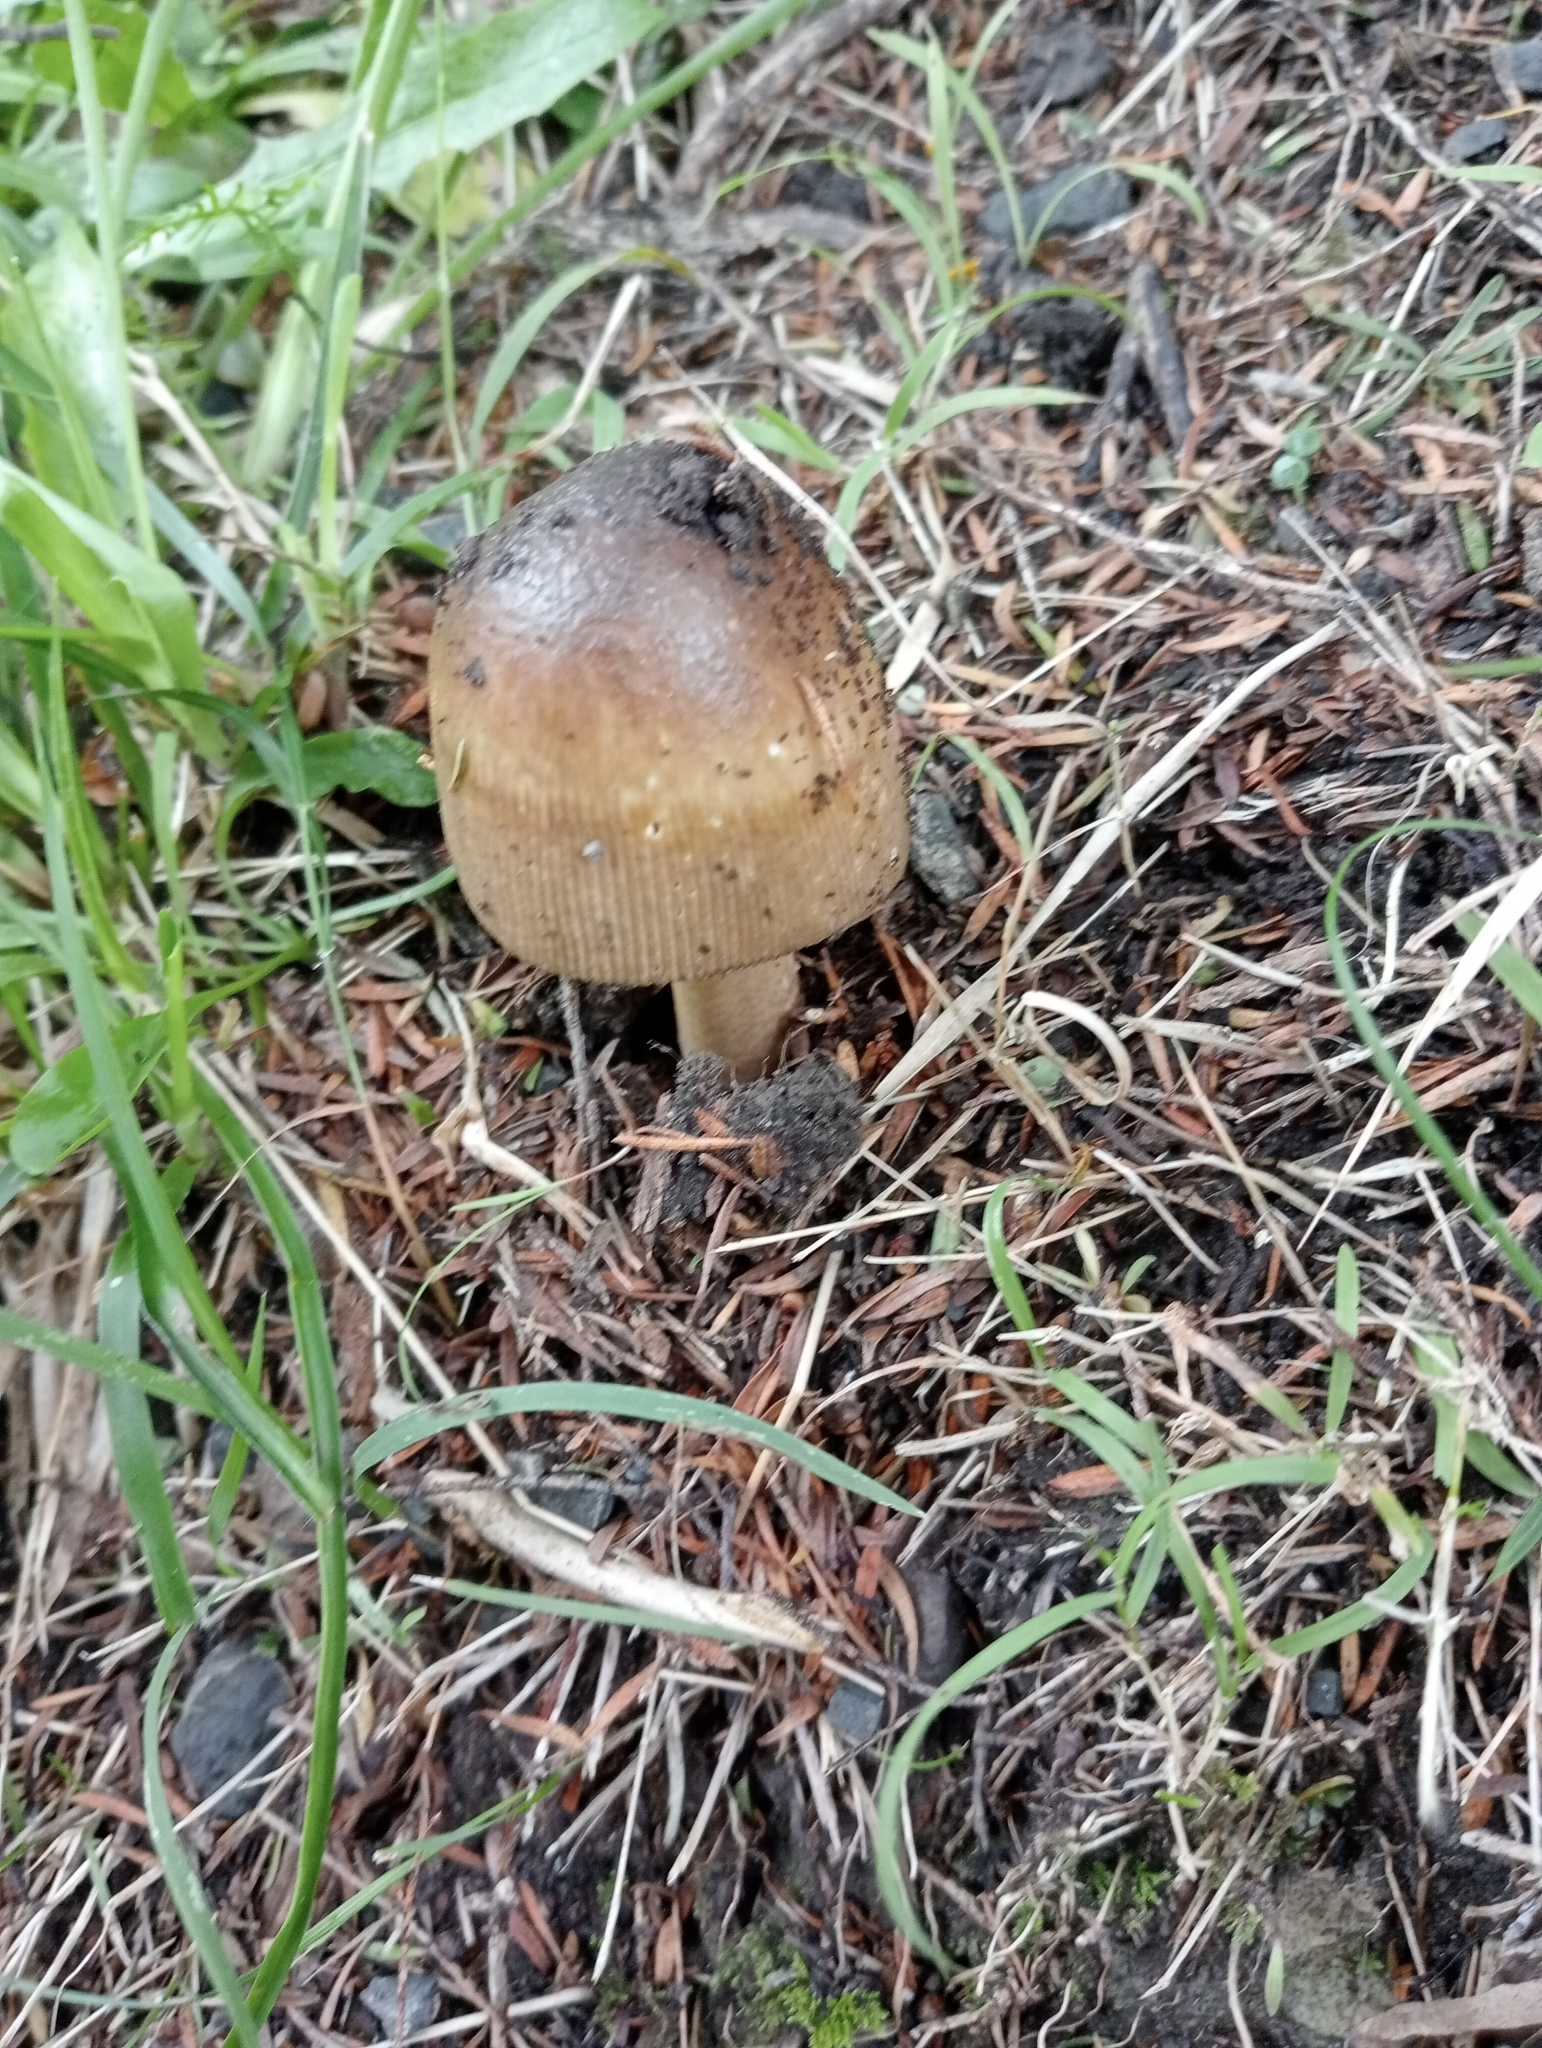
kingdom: Fungi
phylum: Basidiomycota
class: Agaricomycetes
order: Agaricales
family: Amanitaceae
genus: Amanita
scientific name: Amanita pekeoides
